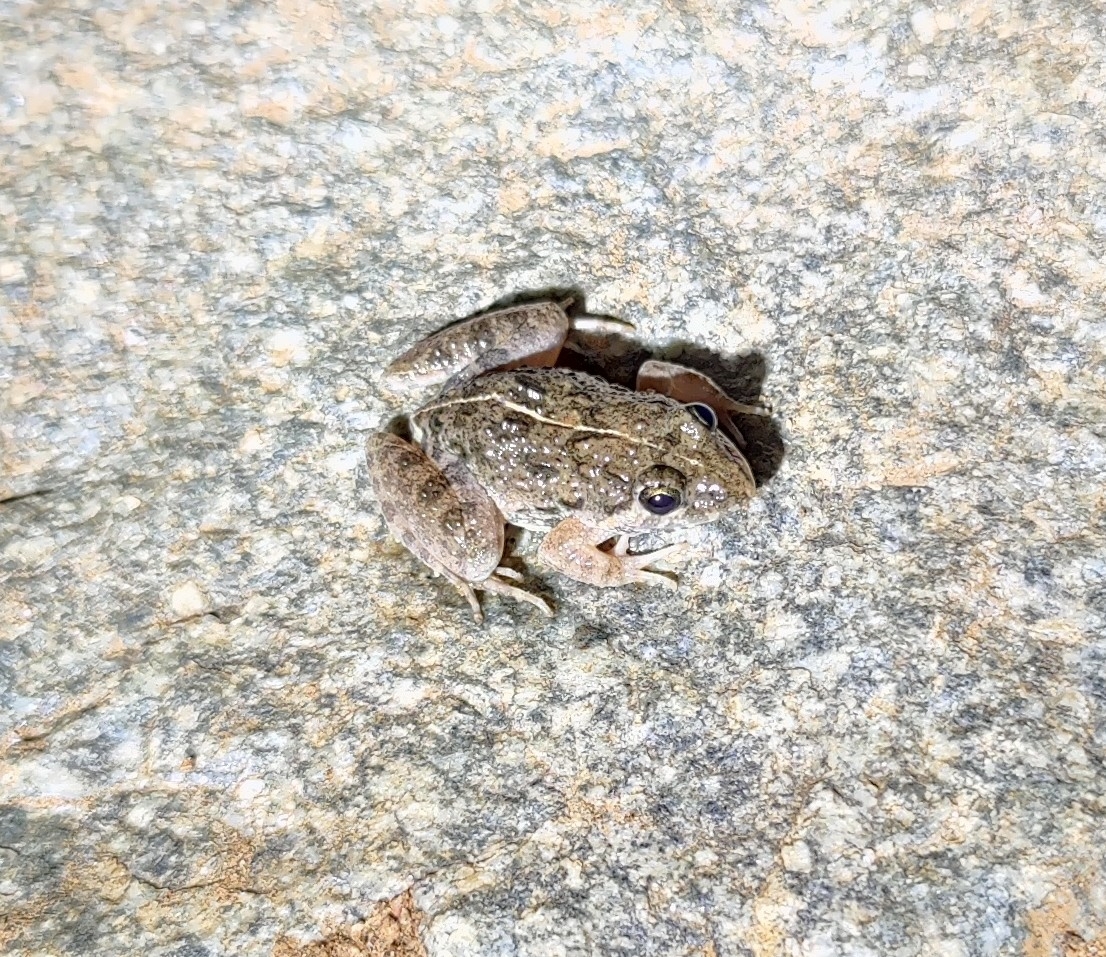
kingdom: Animalia
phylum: Chordata
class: Amphibia
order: Anura
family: Dicroglossidae
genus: Fejervarya
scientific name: Fejervarya
